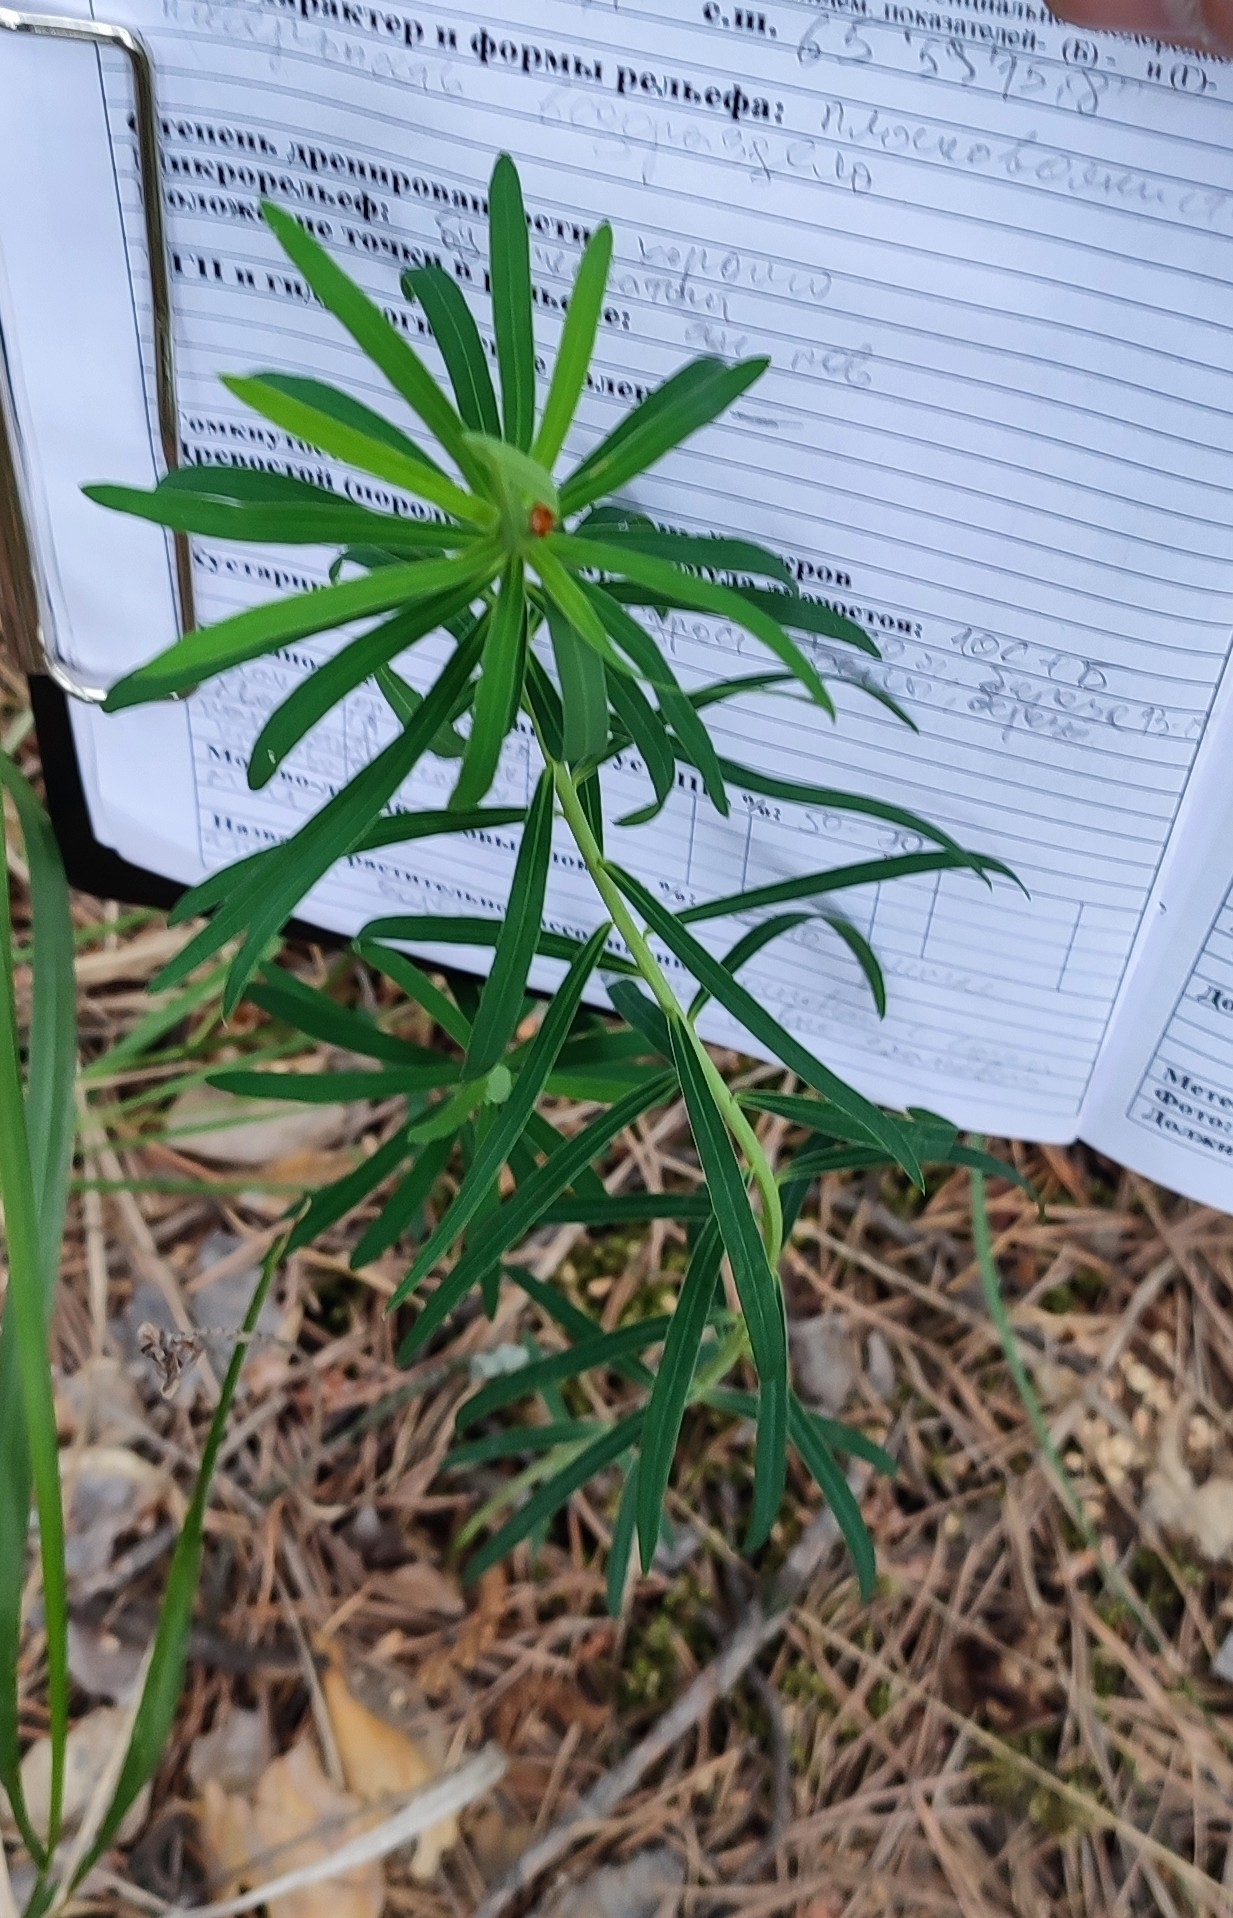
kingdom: Plantae
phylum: Tracheophyta
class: Magnoliopsida
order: Malpighiales
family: Euphorbiaceae
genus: Euphorbia
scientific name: Euphorbia virgata
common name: Leafy spurge
